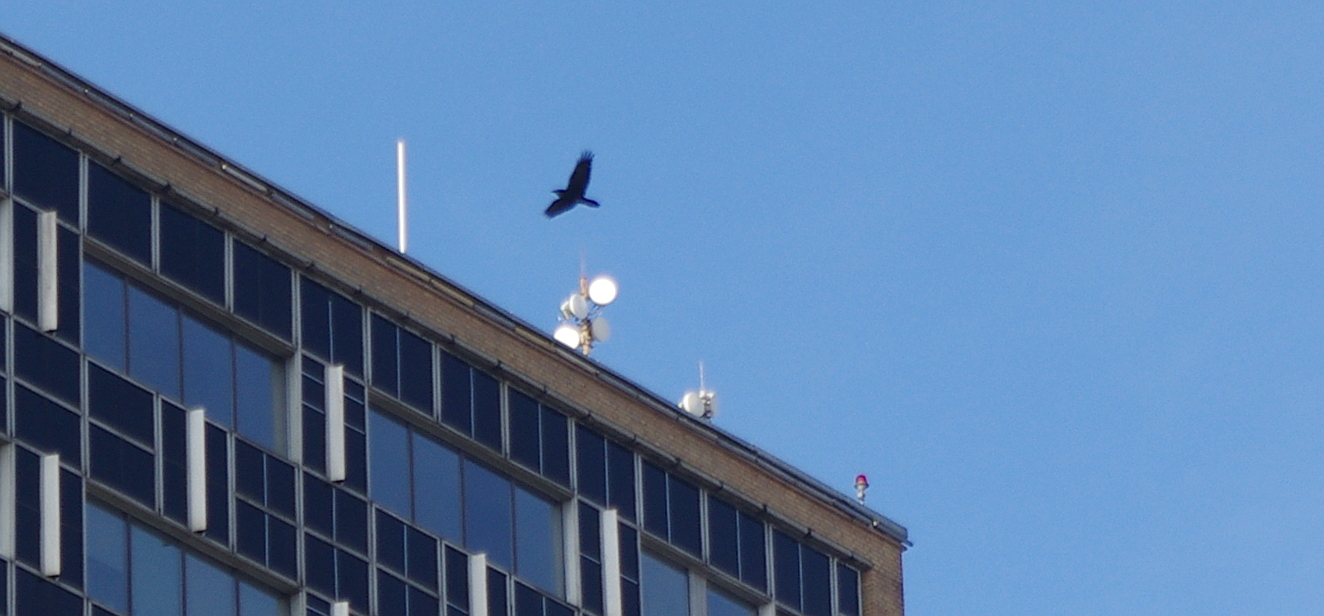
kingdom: Animalia
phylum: Chordata
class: Aves
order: Passeriformes
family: Corvidae
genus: Corvus
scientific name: Corvus corax
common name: Common raven
